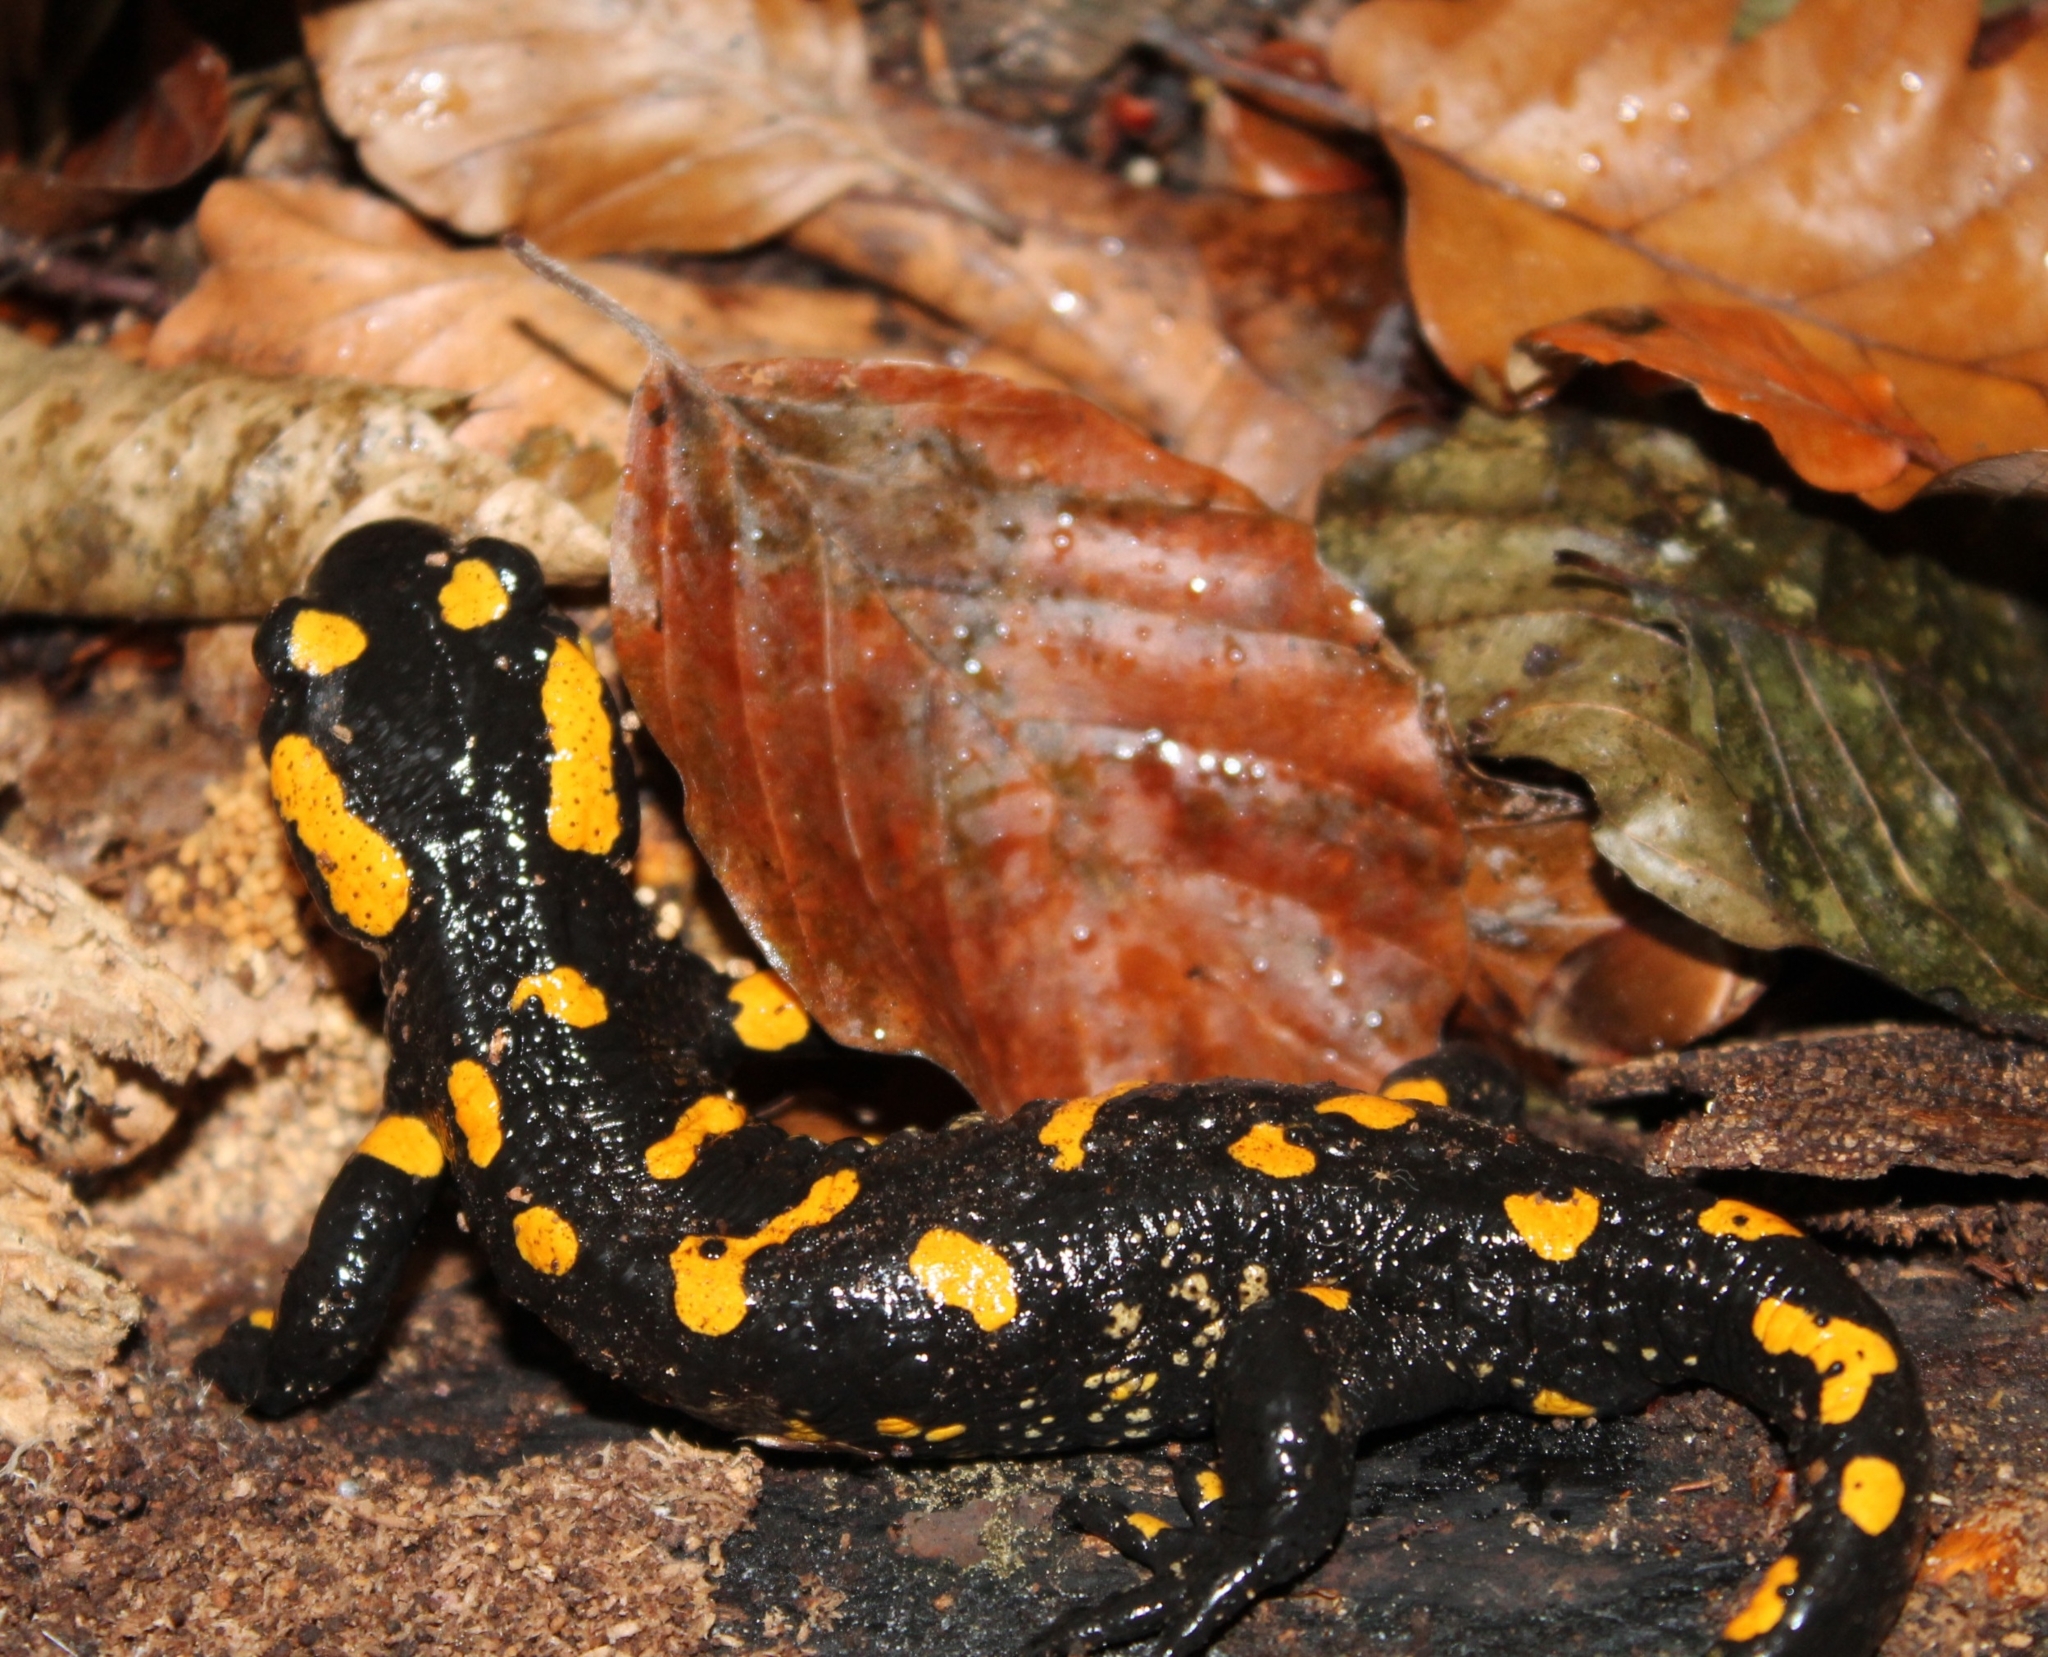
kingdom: Animalia
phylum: Chordata
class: Amphibia
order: Caudata
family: Salamandridae
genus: Salamandra
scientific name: Salamandra salamandra
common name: Fire salamander
